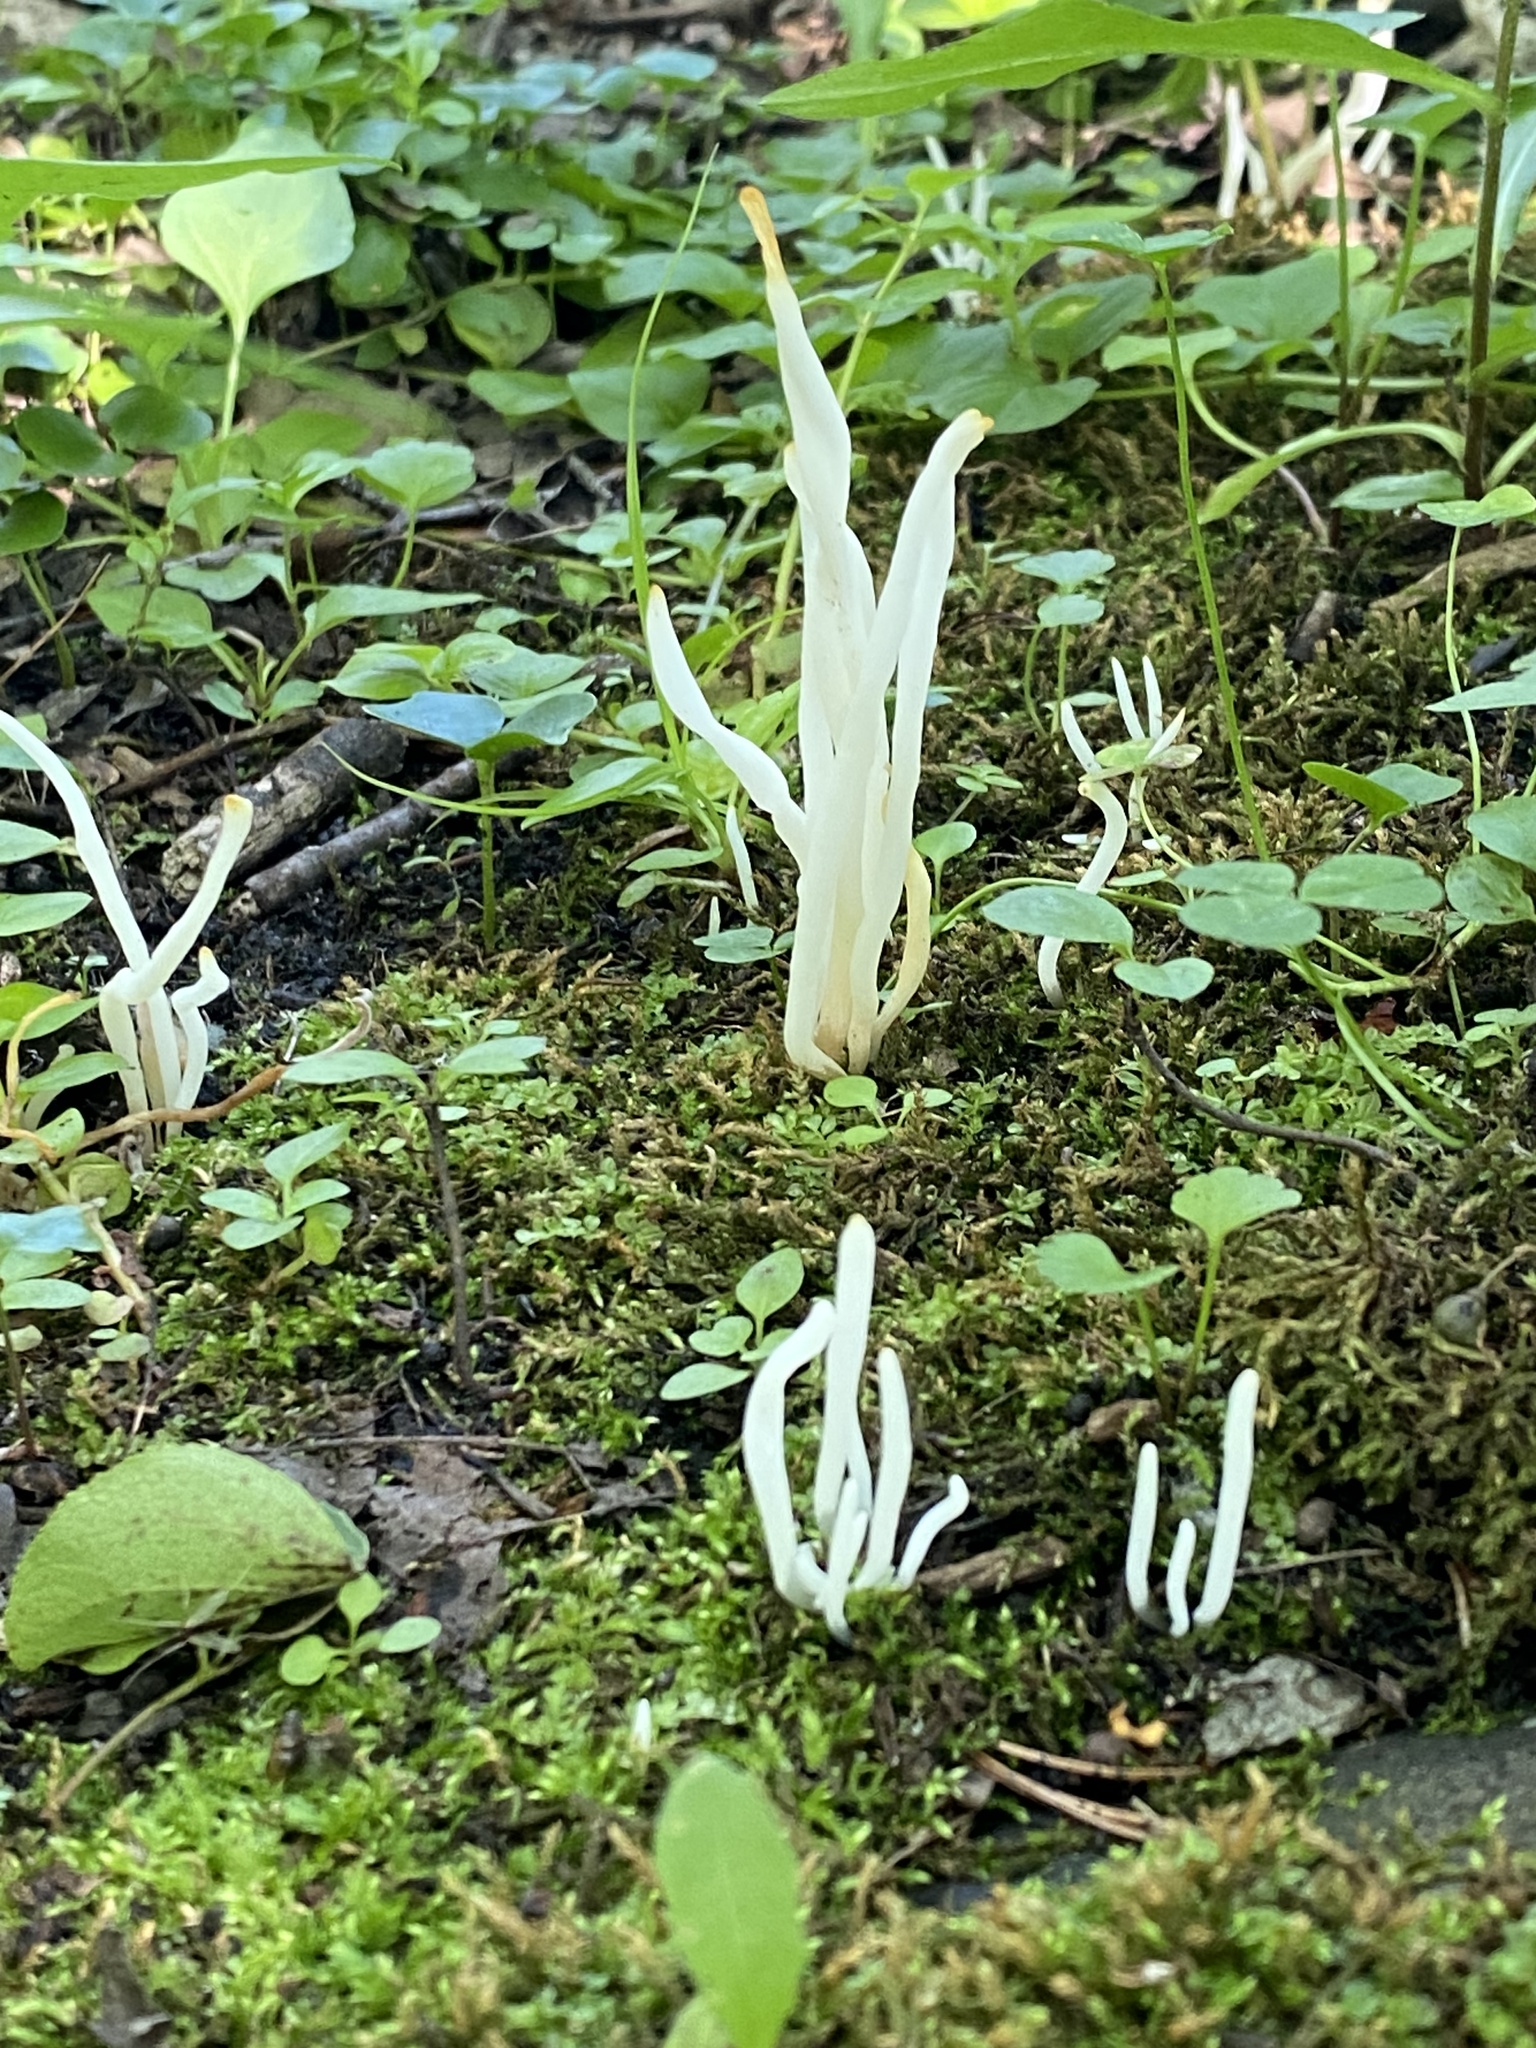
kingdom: Fungi
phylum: Basidiomycota
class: Agaricomycetes
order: Agaricales
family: Clavariaceae
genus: Clavaria
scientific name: Clavaria fragilis
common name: White spindles
